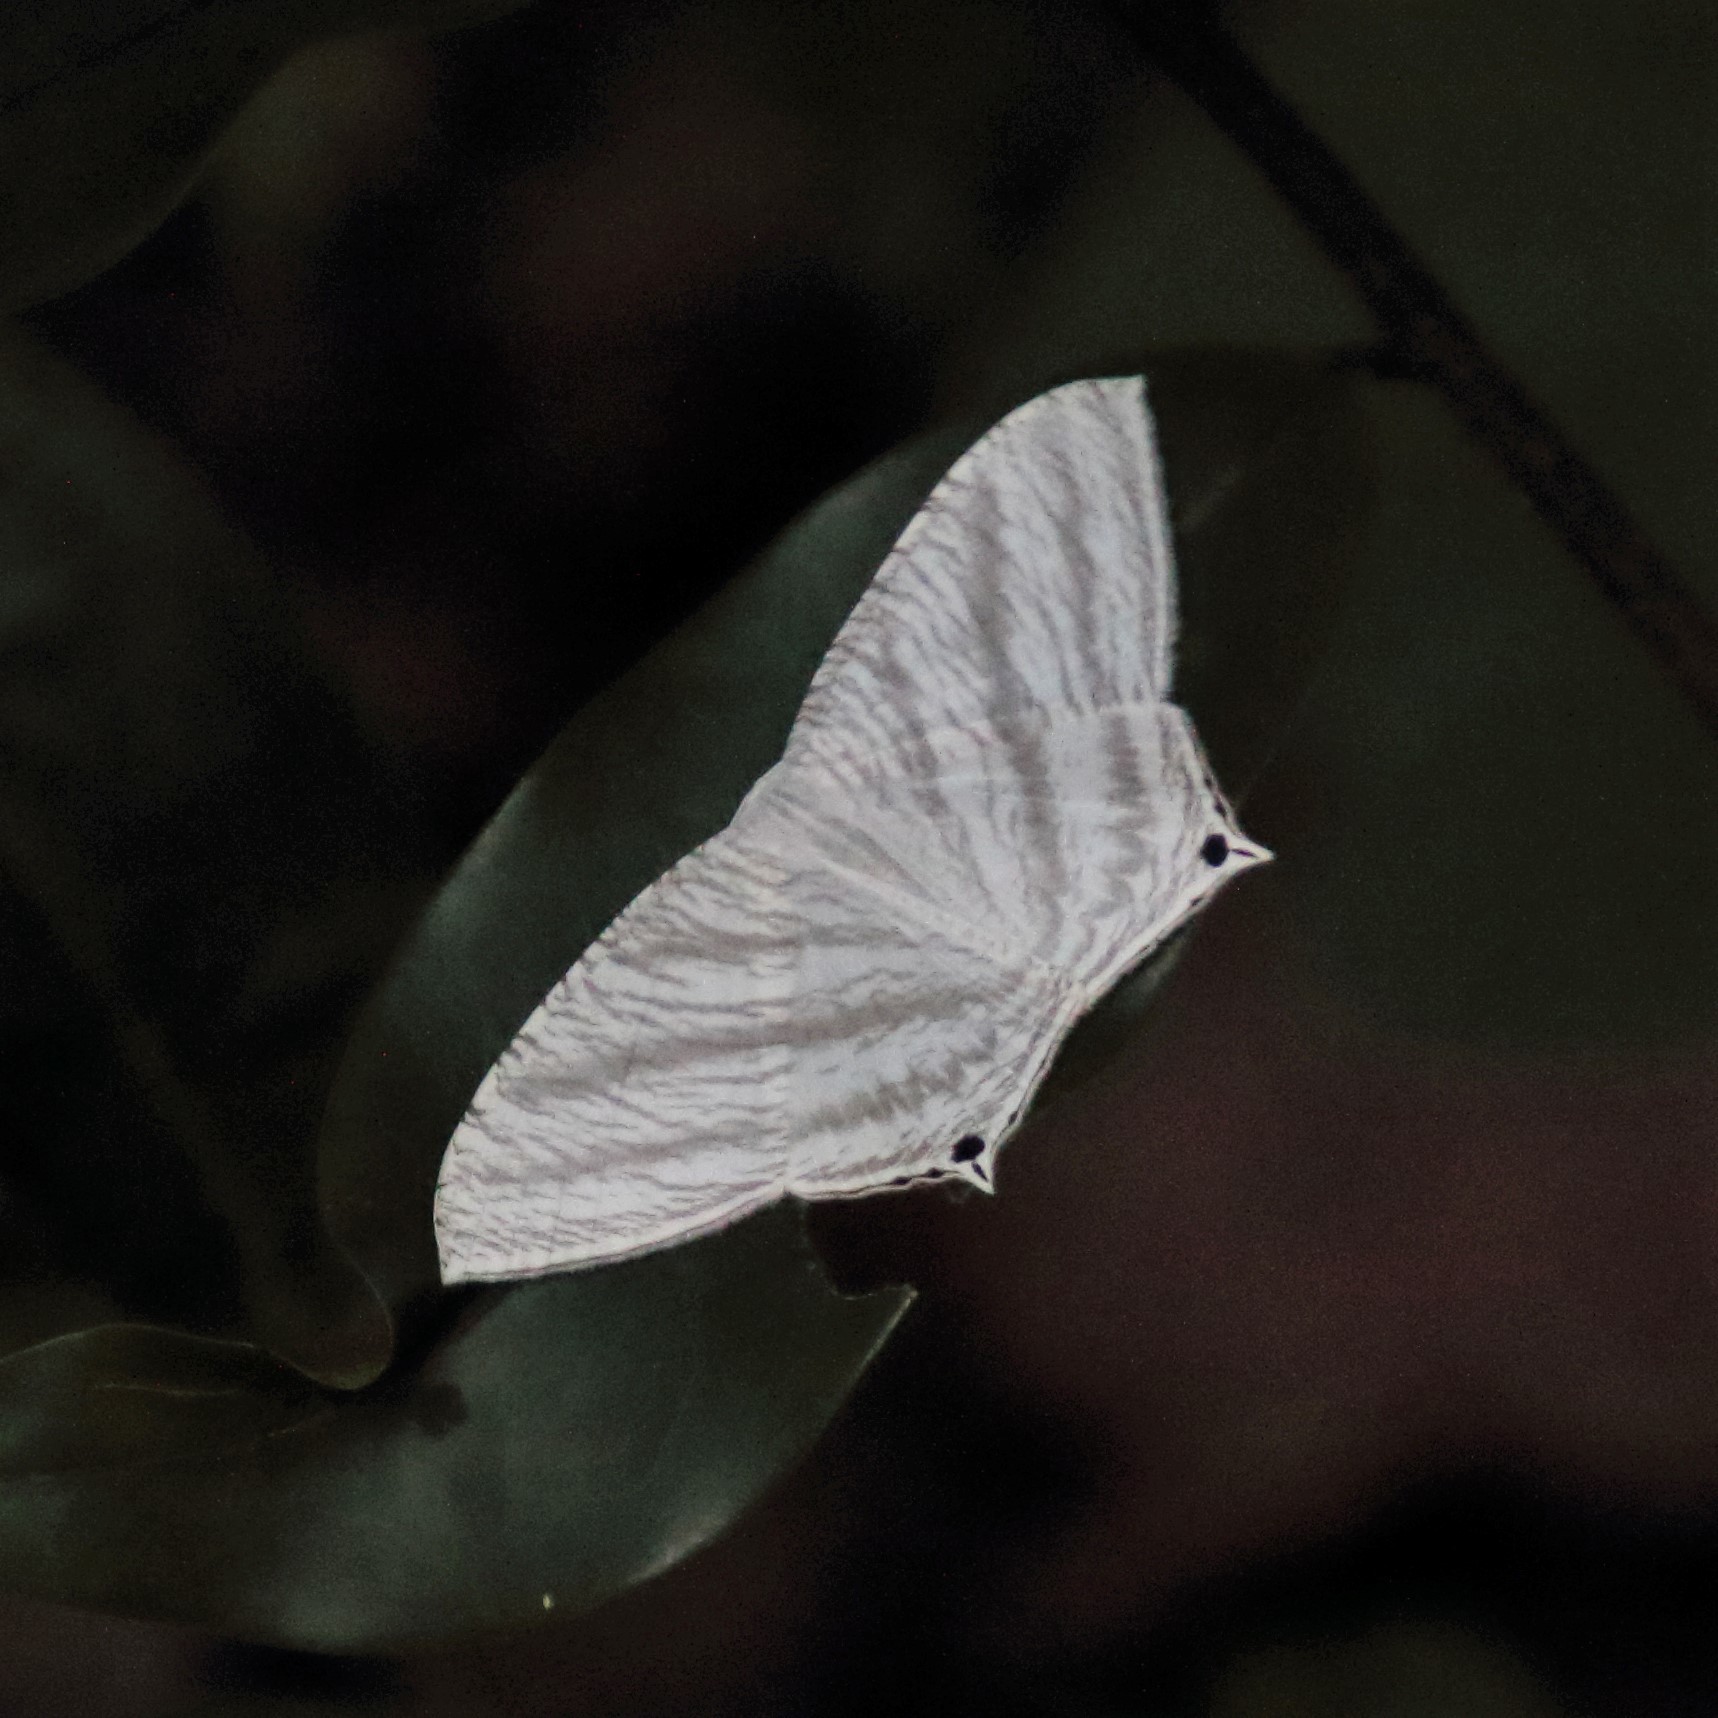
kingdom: Animalia
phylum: Arthropoda
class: Insecta
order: Lepidoptera
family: Uraniidae
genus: Micronia
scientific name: Micronia aculeata
